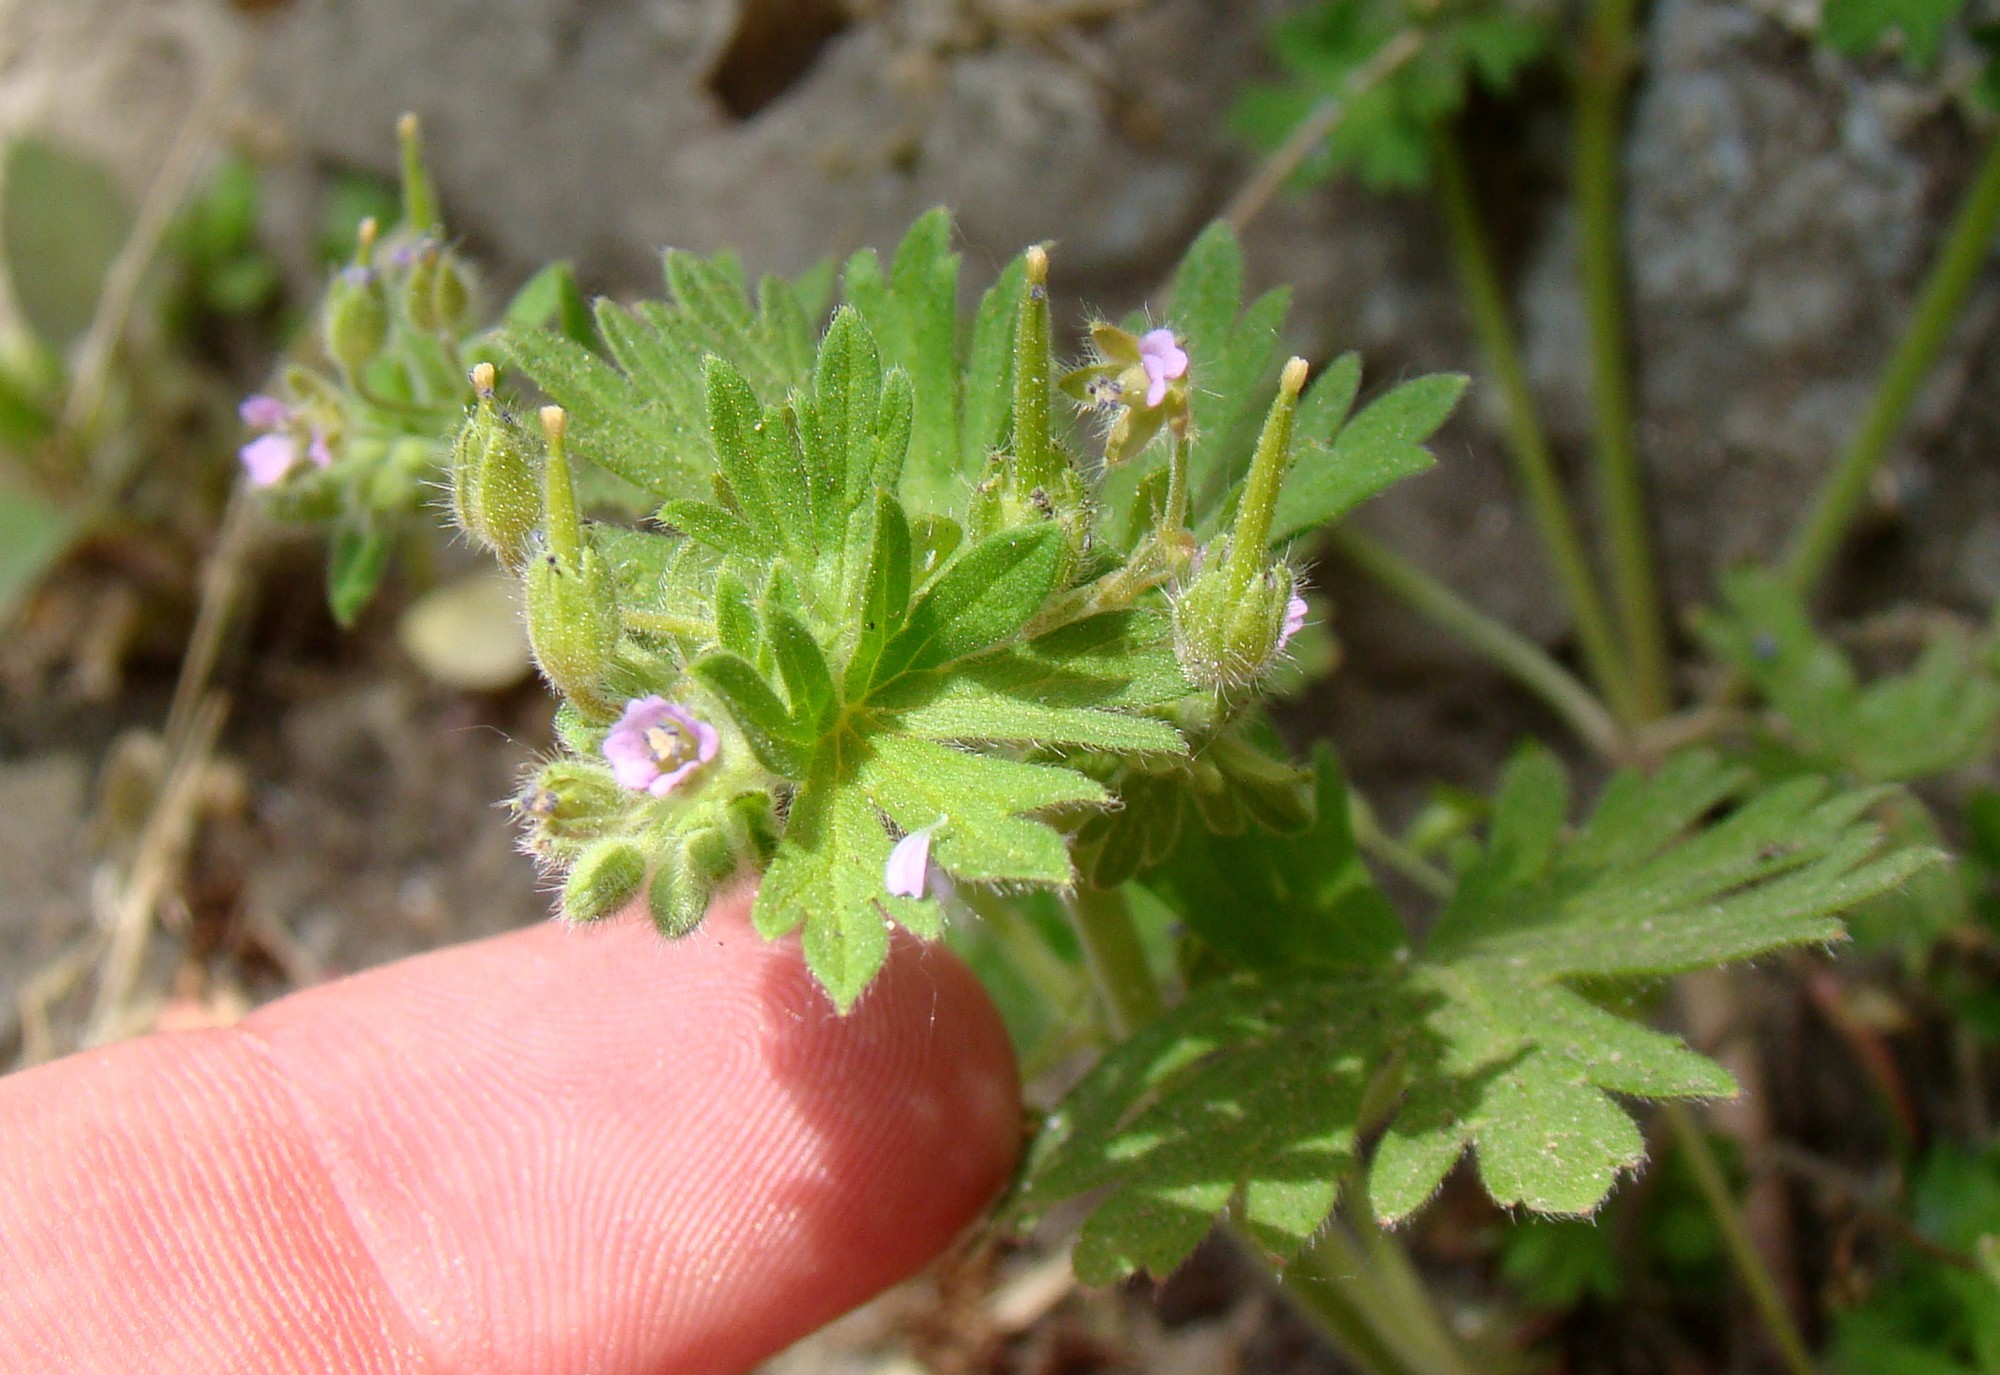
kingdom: Plantae
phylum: Tracheophyta
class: Magnoliopsida
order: Geraniales
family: Geraniaceae
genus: Geranium
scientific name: Geranium pusillum
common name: Small geranium
